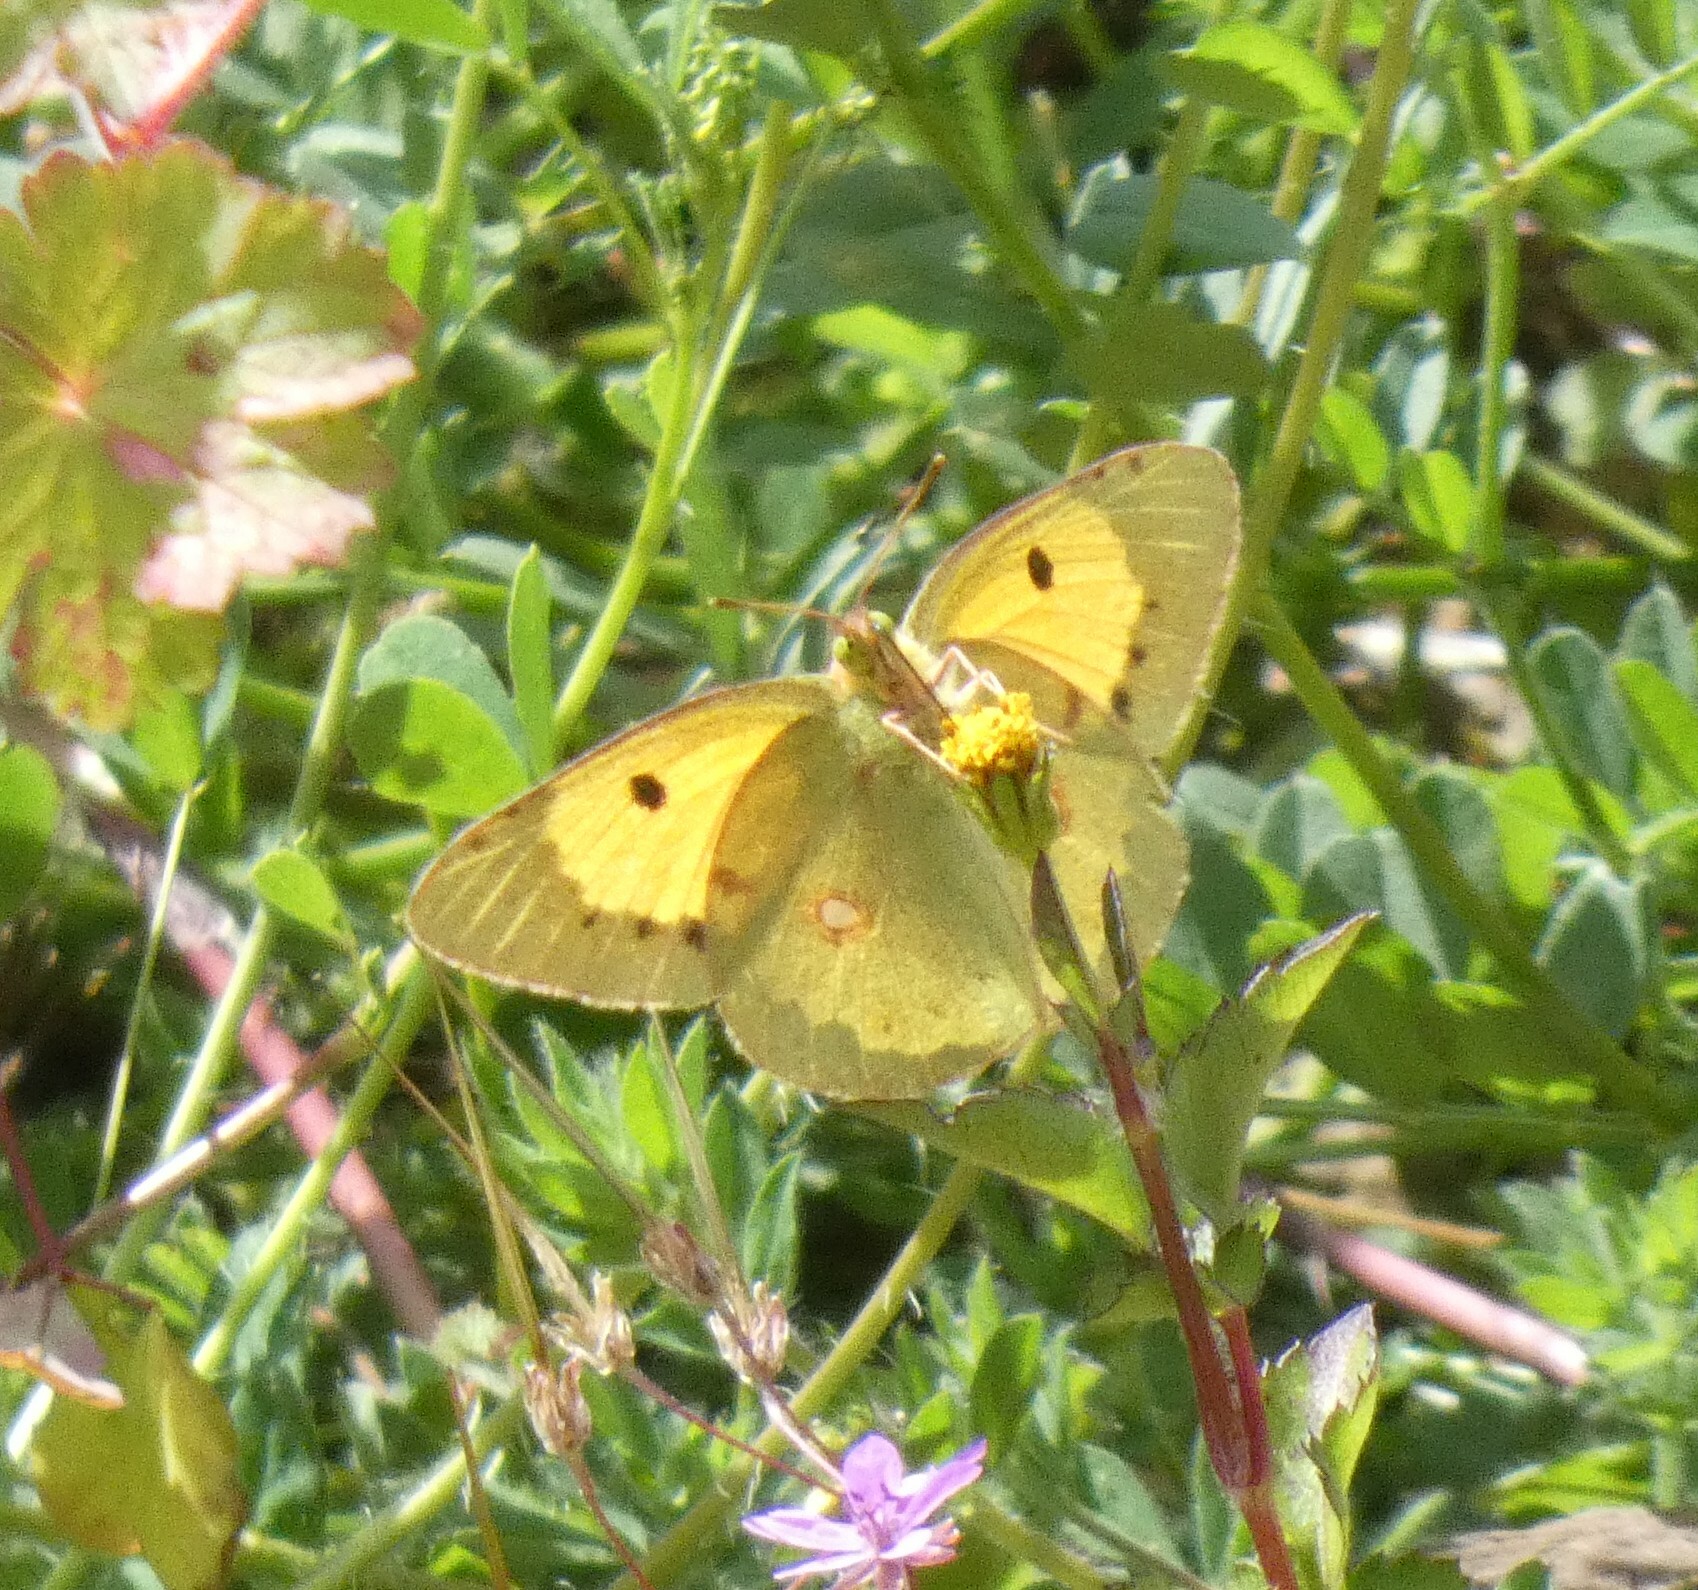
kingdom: Animalia
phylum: Arthropoda
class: Insecta
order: Lepidoptera
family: Pieridae
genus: Colias
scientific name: Colias croceus
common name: Clouded yellow
